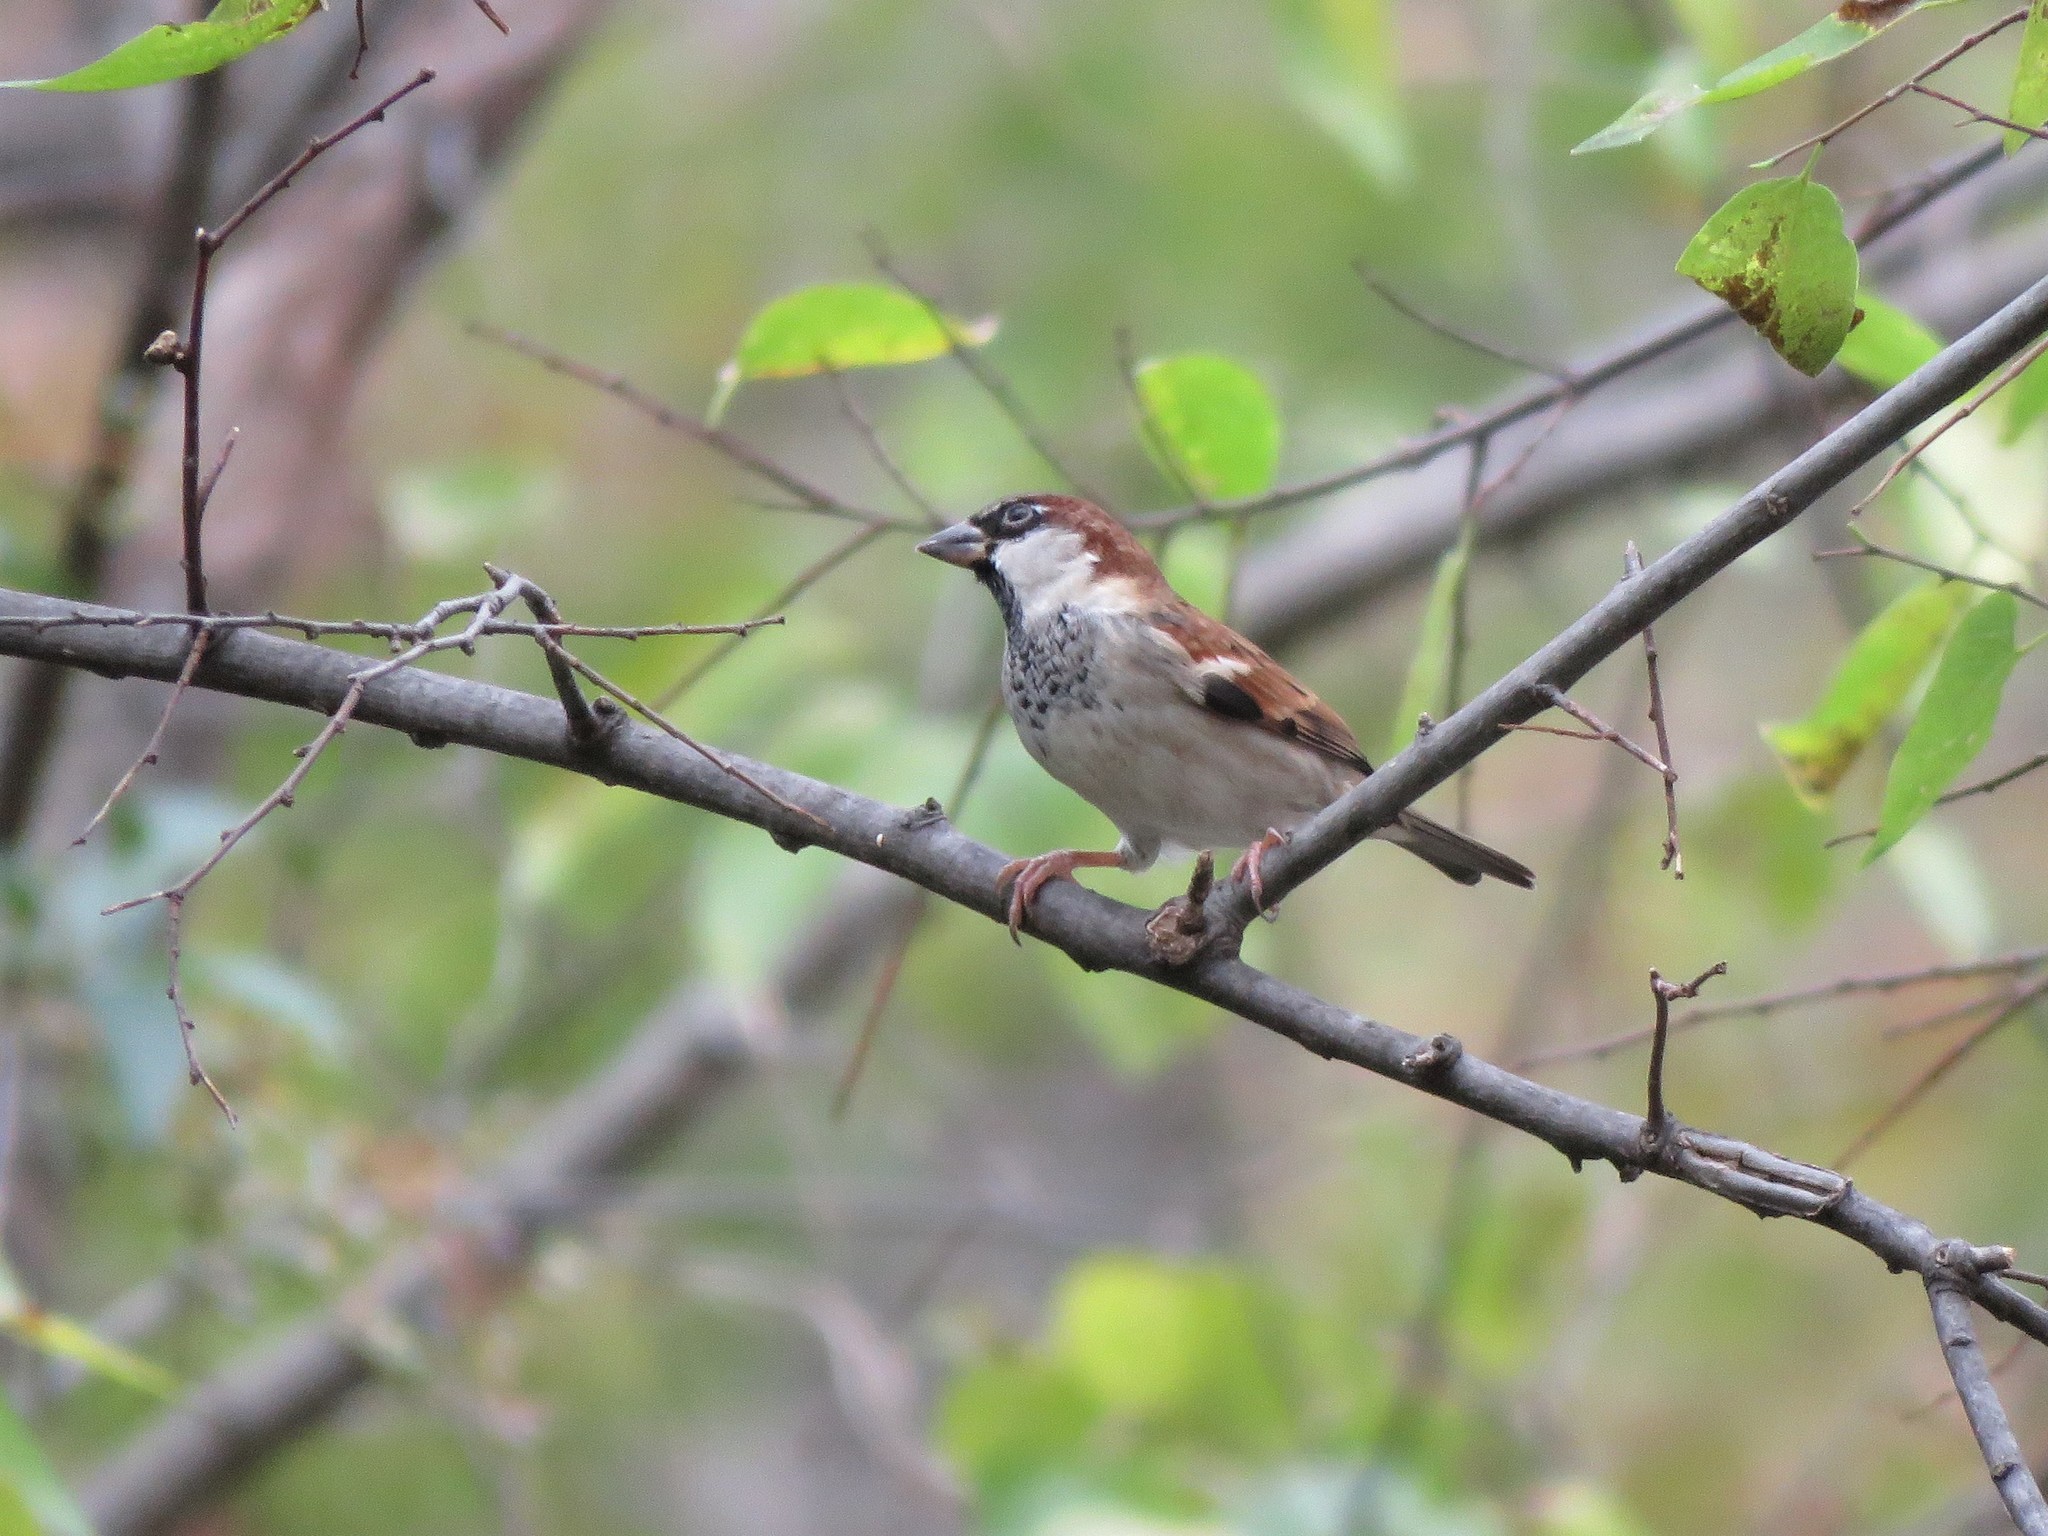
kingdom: Animalia
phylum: Chordata
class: Aves
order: Passeriformes
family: Passeridae
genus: Passer
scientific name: Passer domesticus
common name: House sparrow
